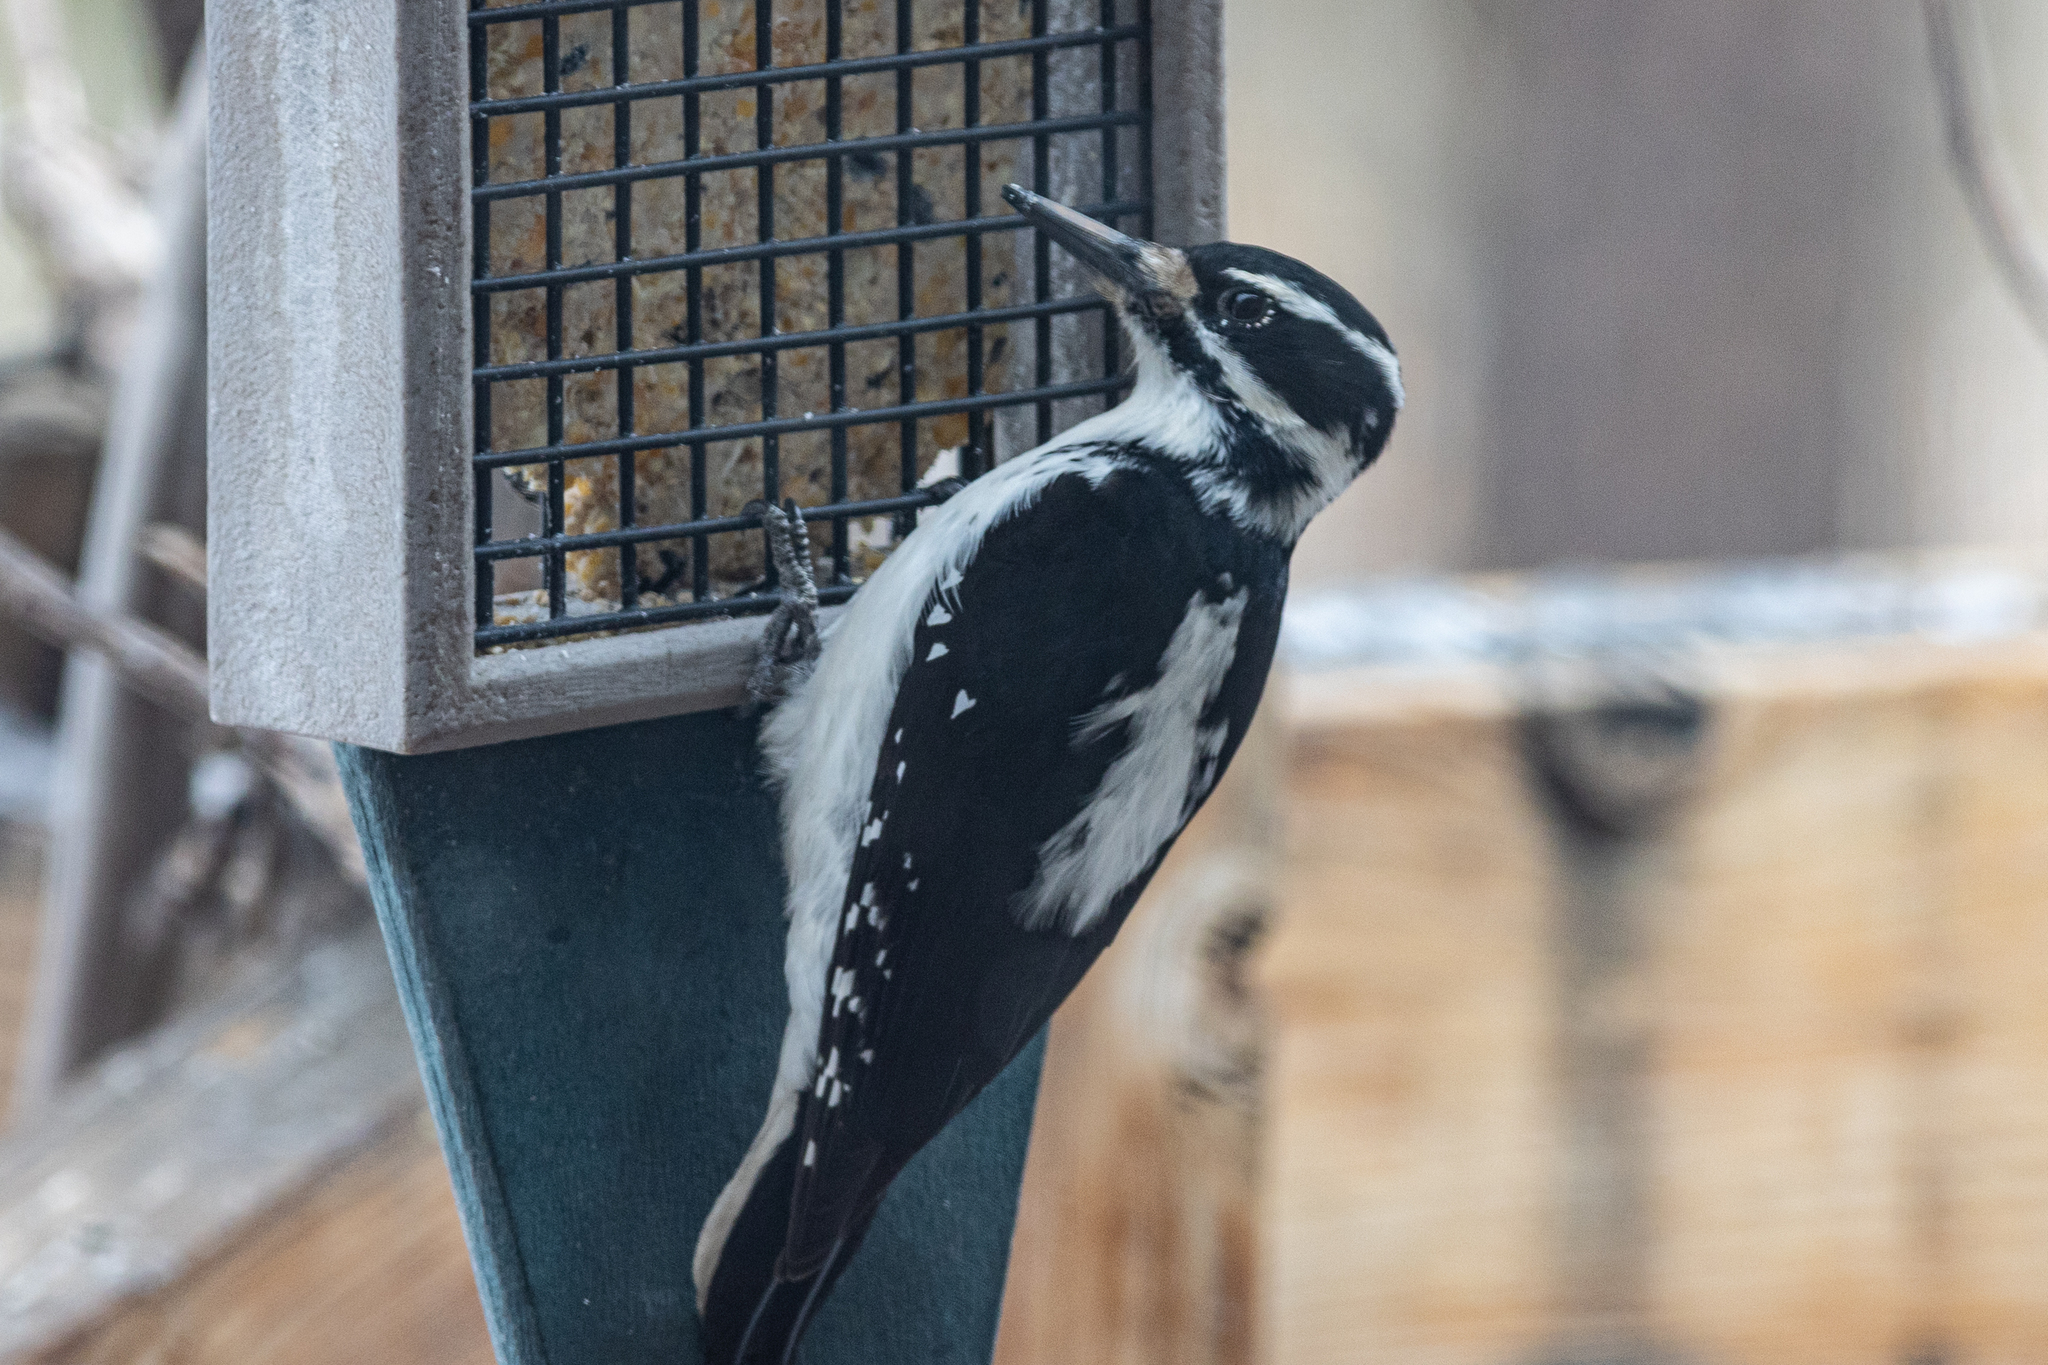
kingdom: Animalia
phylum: Chordata
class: Aves
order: Piciformes
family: Picidae
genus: Leuconotopicus
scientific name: Leuconotopicus villosus
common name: Hairy woodpecker
